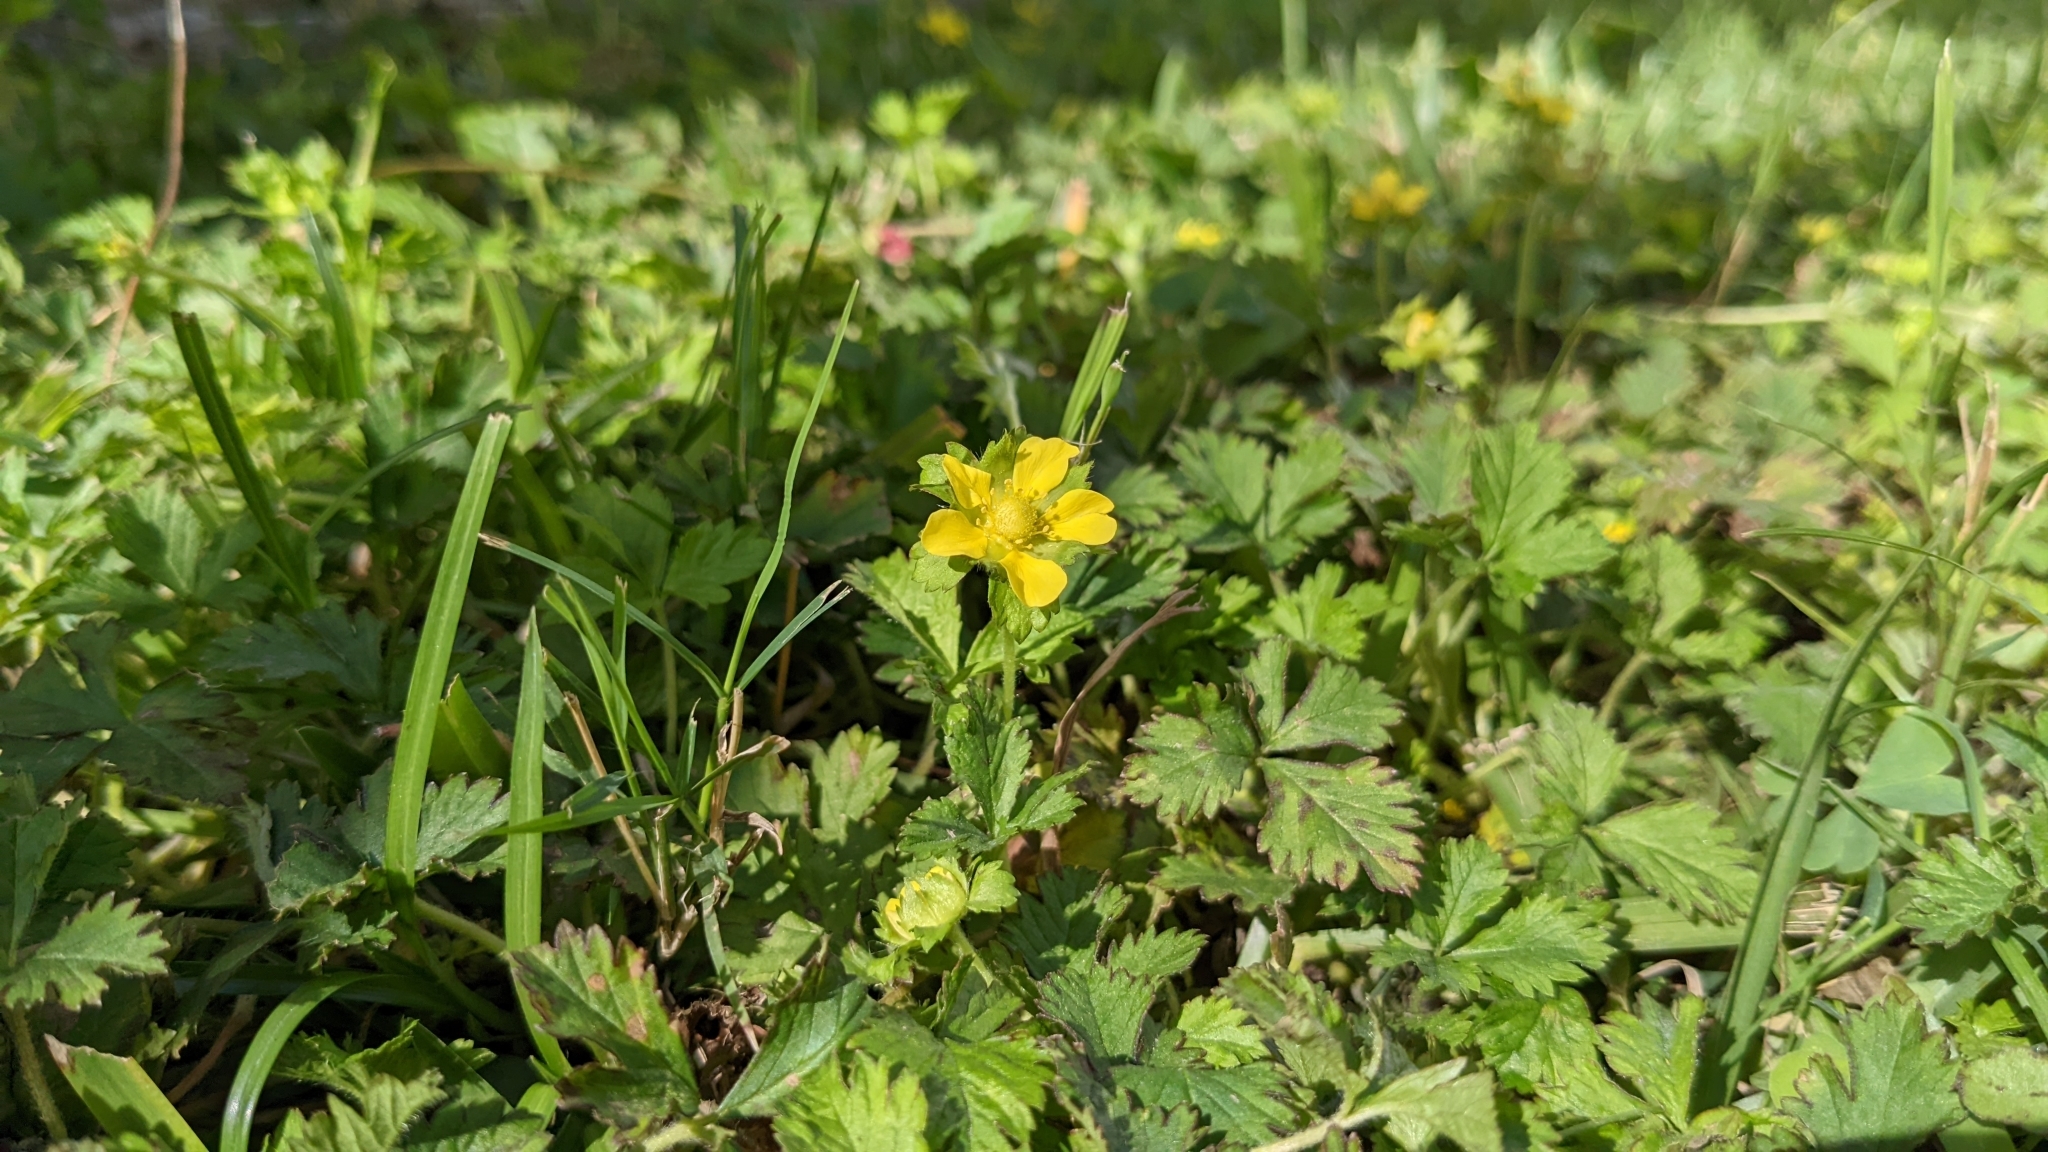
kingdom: Plantae
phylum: Tracheophyta
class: Magnoliopsida
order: Rosales
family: Rosaceae
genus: Potentilla
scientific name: Potentilla indica
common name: Yellow-flowered strawberry
